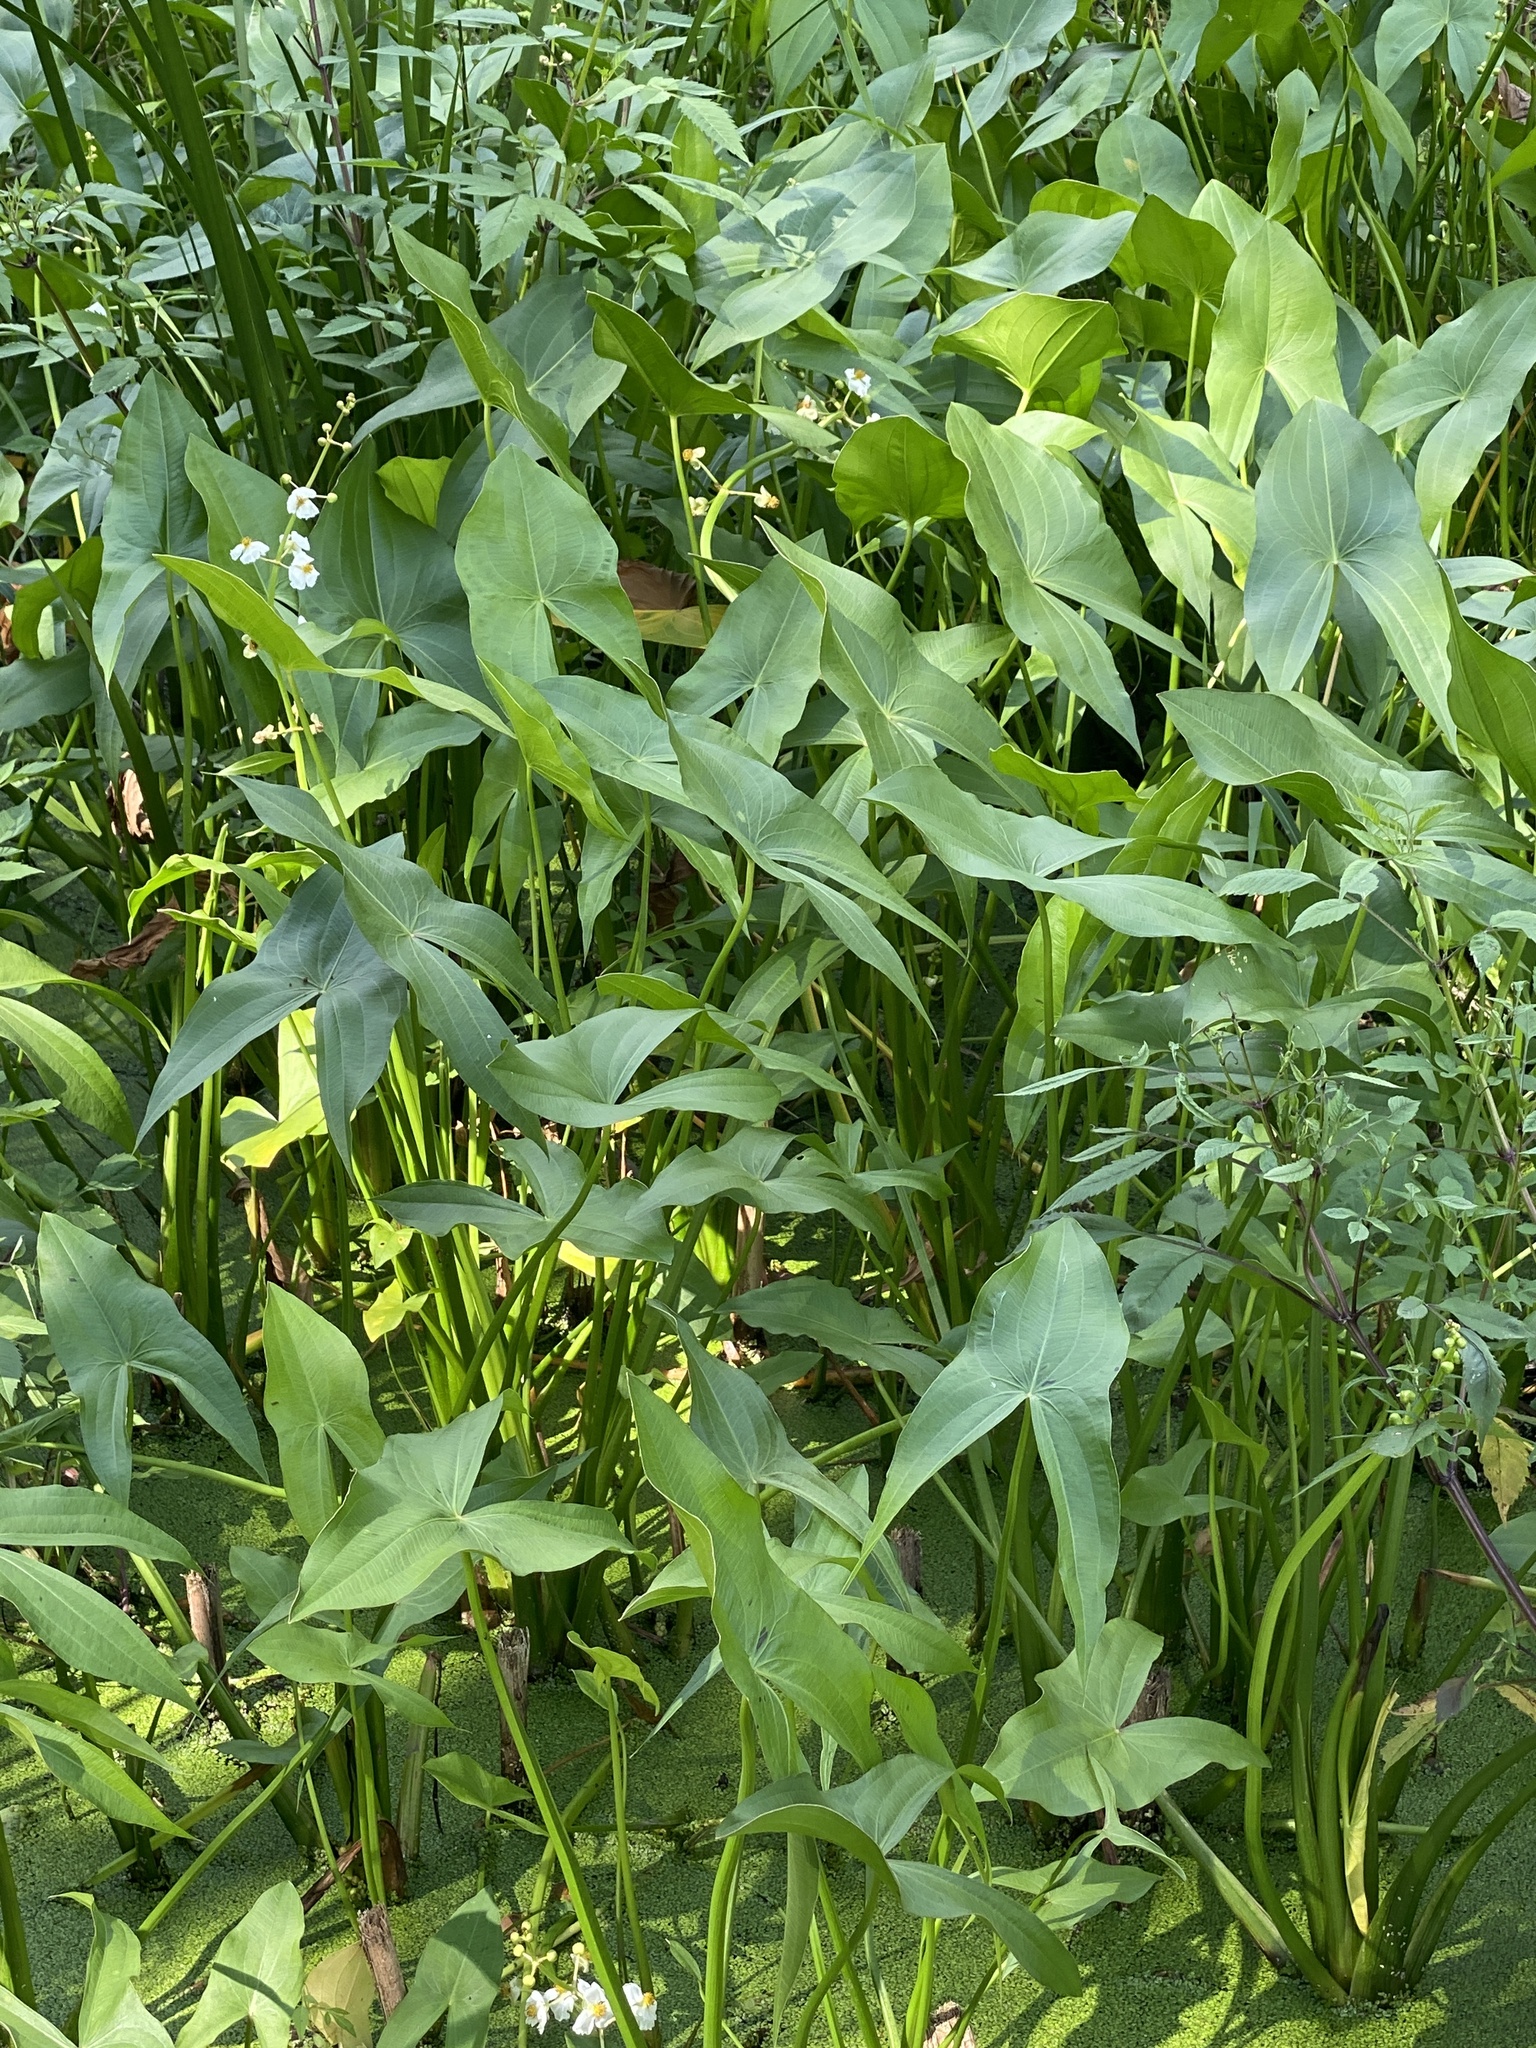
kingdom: Plantae
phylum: Tracheophyta
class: Liliopsida
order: Alismatales
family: Alismataceae
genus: Sagittaria
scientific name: Sagittaria latifolia
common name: Duck-potato
